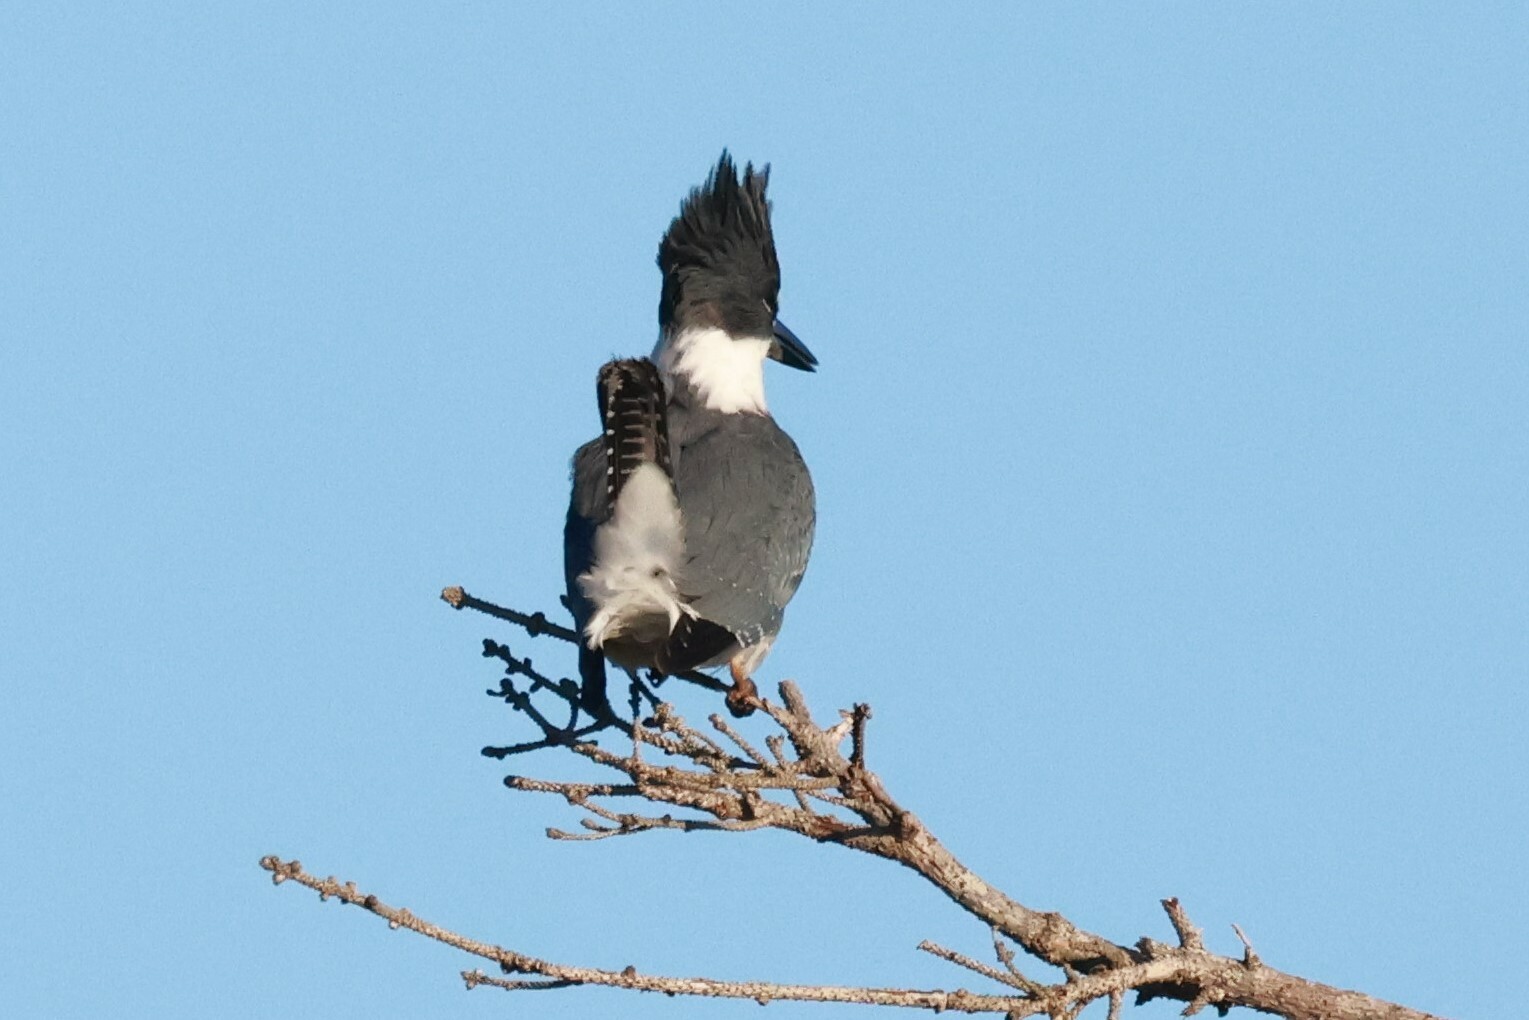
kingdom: Animalia
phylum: Chordata
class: Aves
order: Coraciiformes
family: Alcedinidae
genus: Megaceryle
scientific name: Megaceryle alcyon
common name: Belted kingfisher
